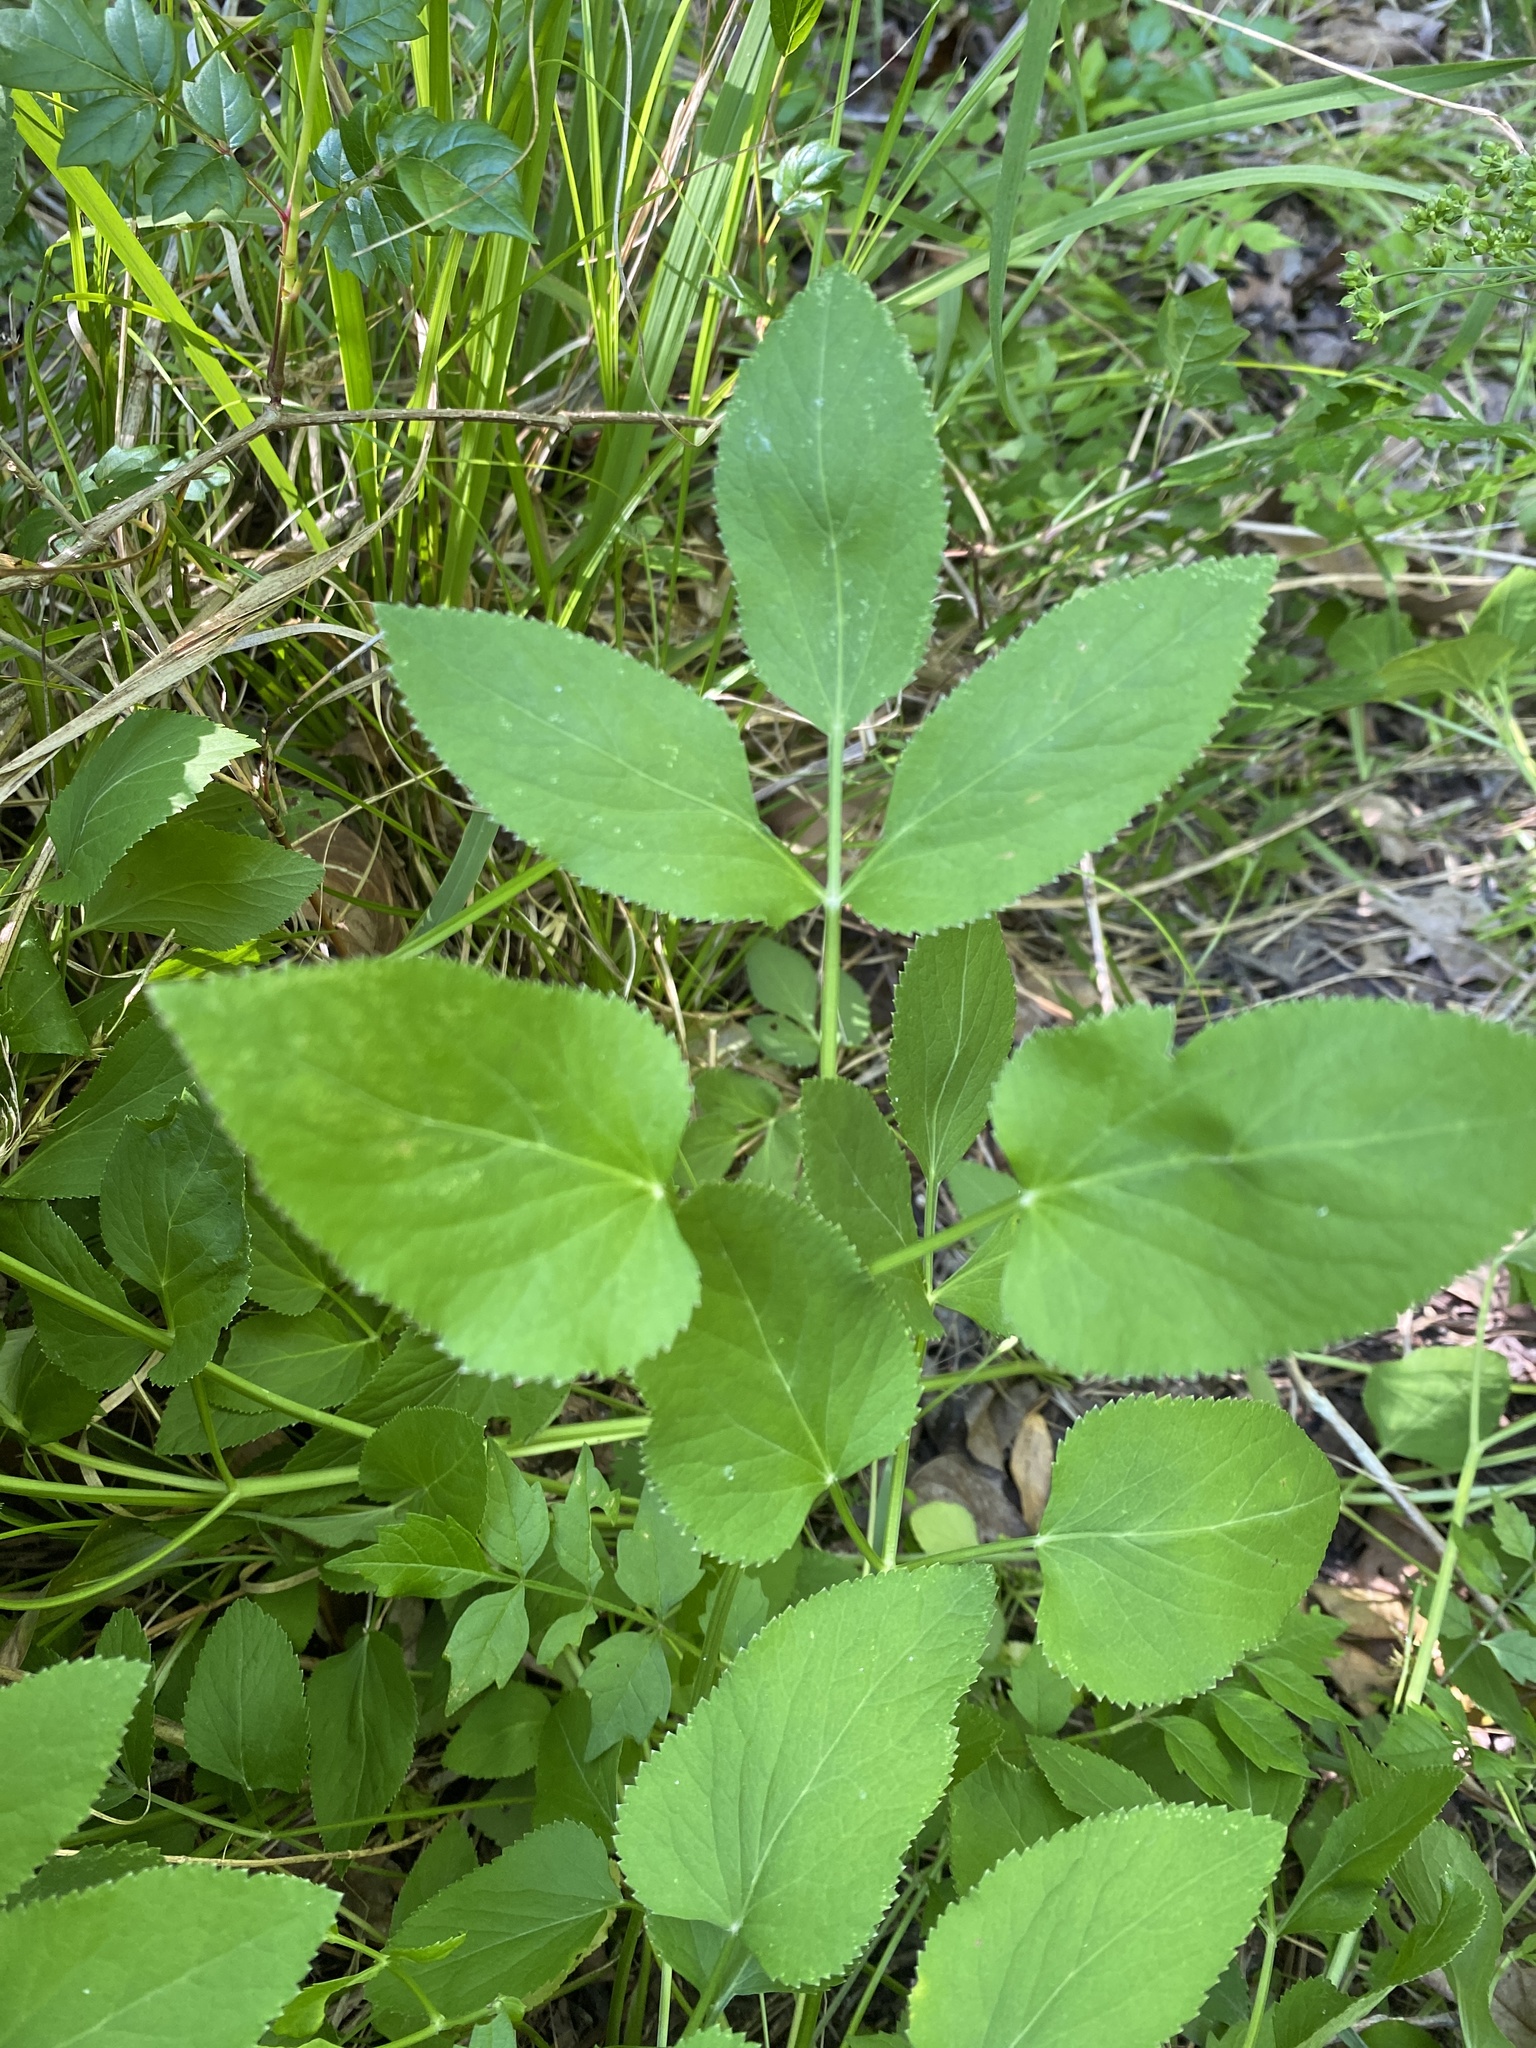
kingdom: Plantae
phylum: Tracheophyta
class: Magnoliopsida
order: Apiales
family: Apiaceae
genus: Zizia
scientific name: Zizia aurea
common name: Golden alexanders
